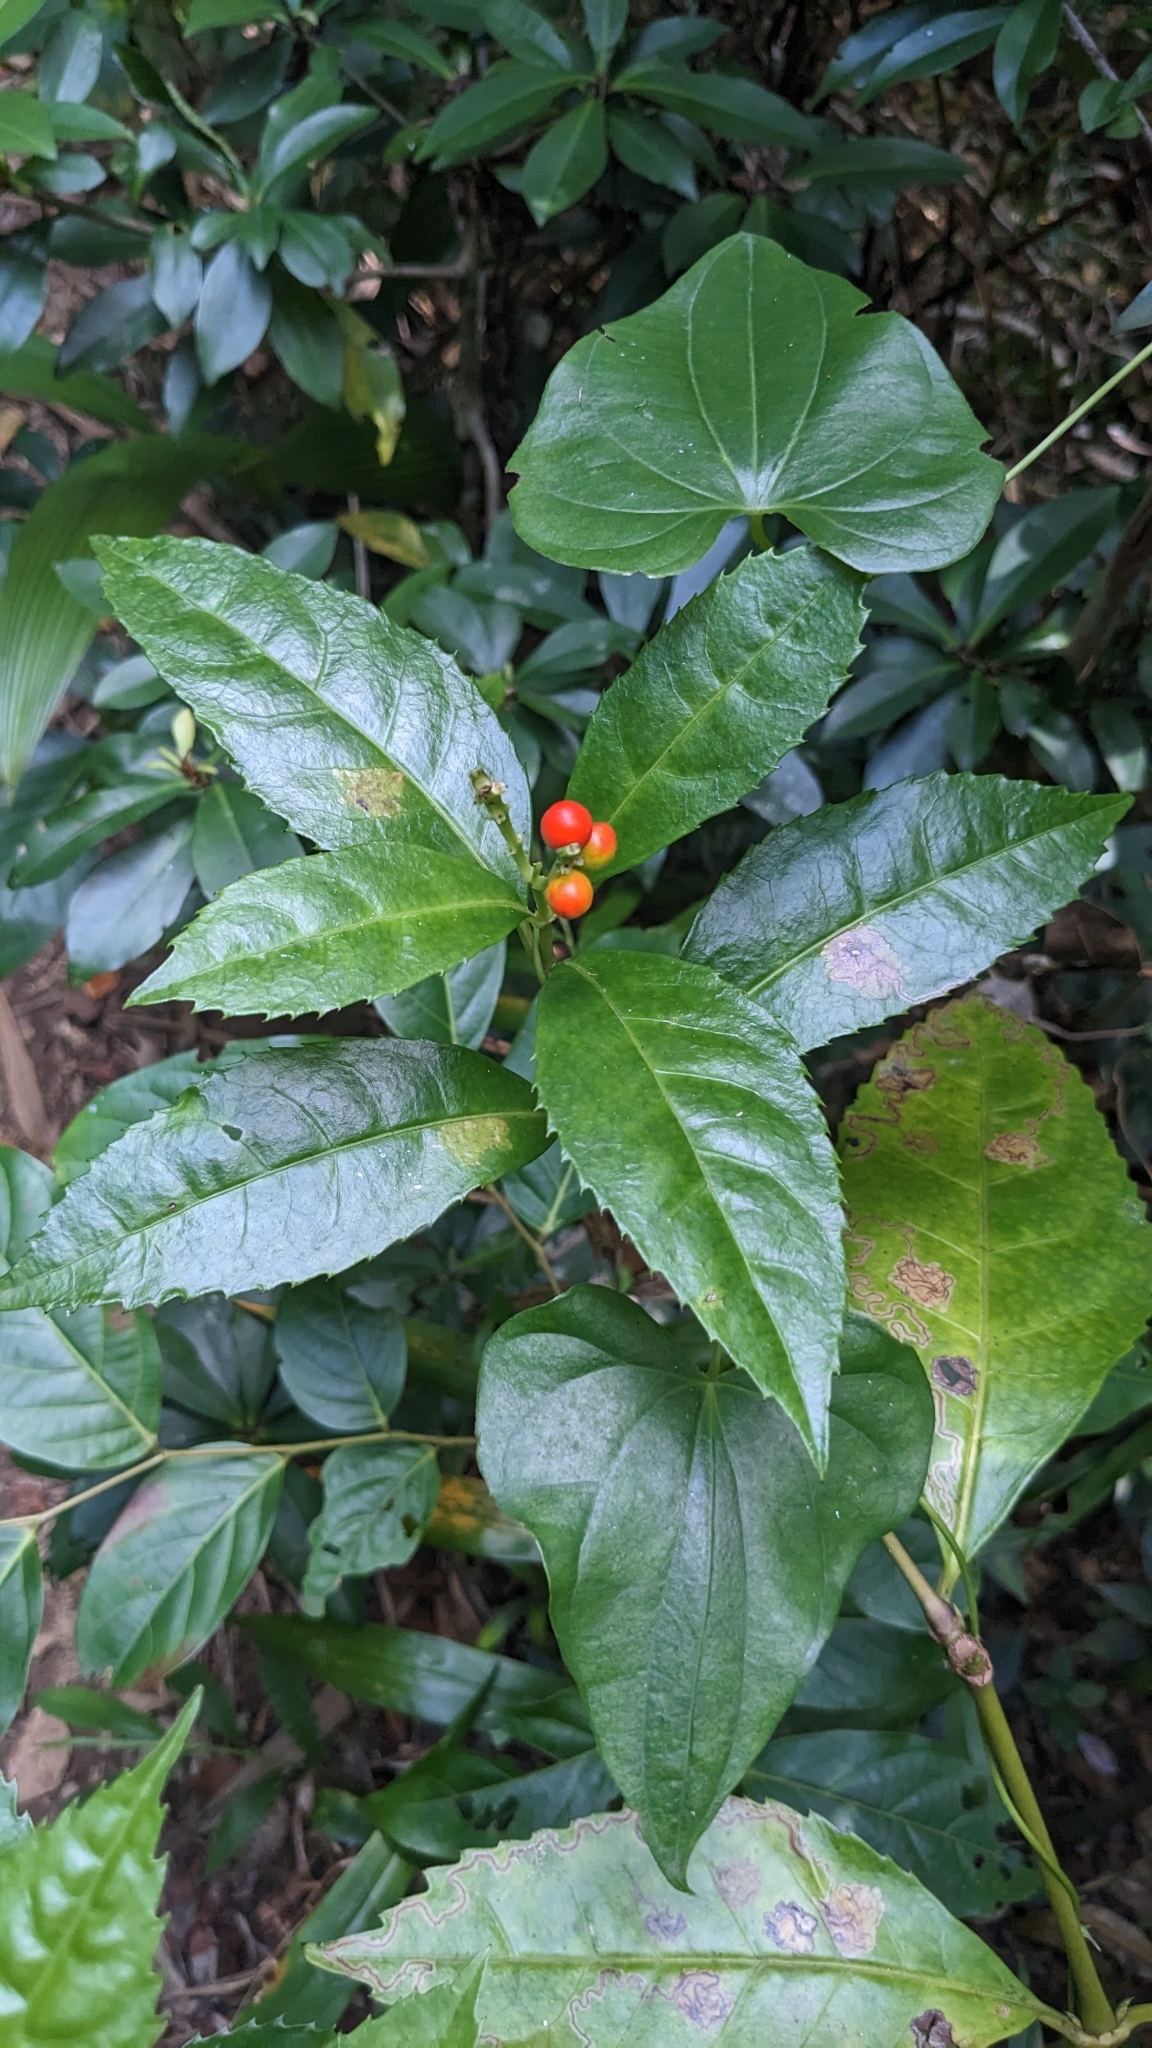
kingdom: Plantae
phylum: Tracheophyta
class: Magnoliopsida
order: Chloranthales
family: Chloranthaceae
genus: Sarcandra
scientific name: Sarcandra glabra
